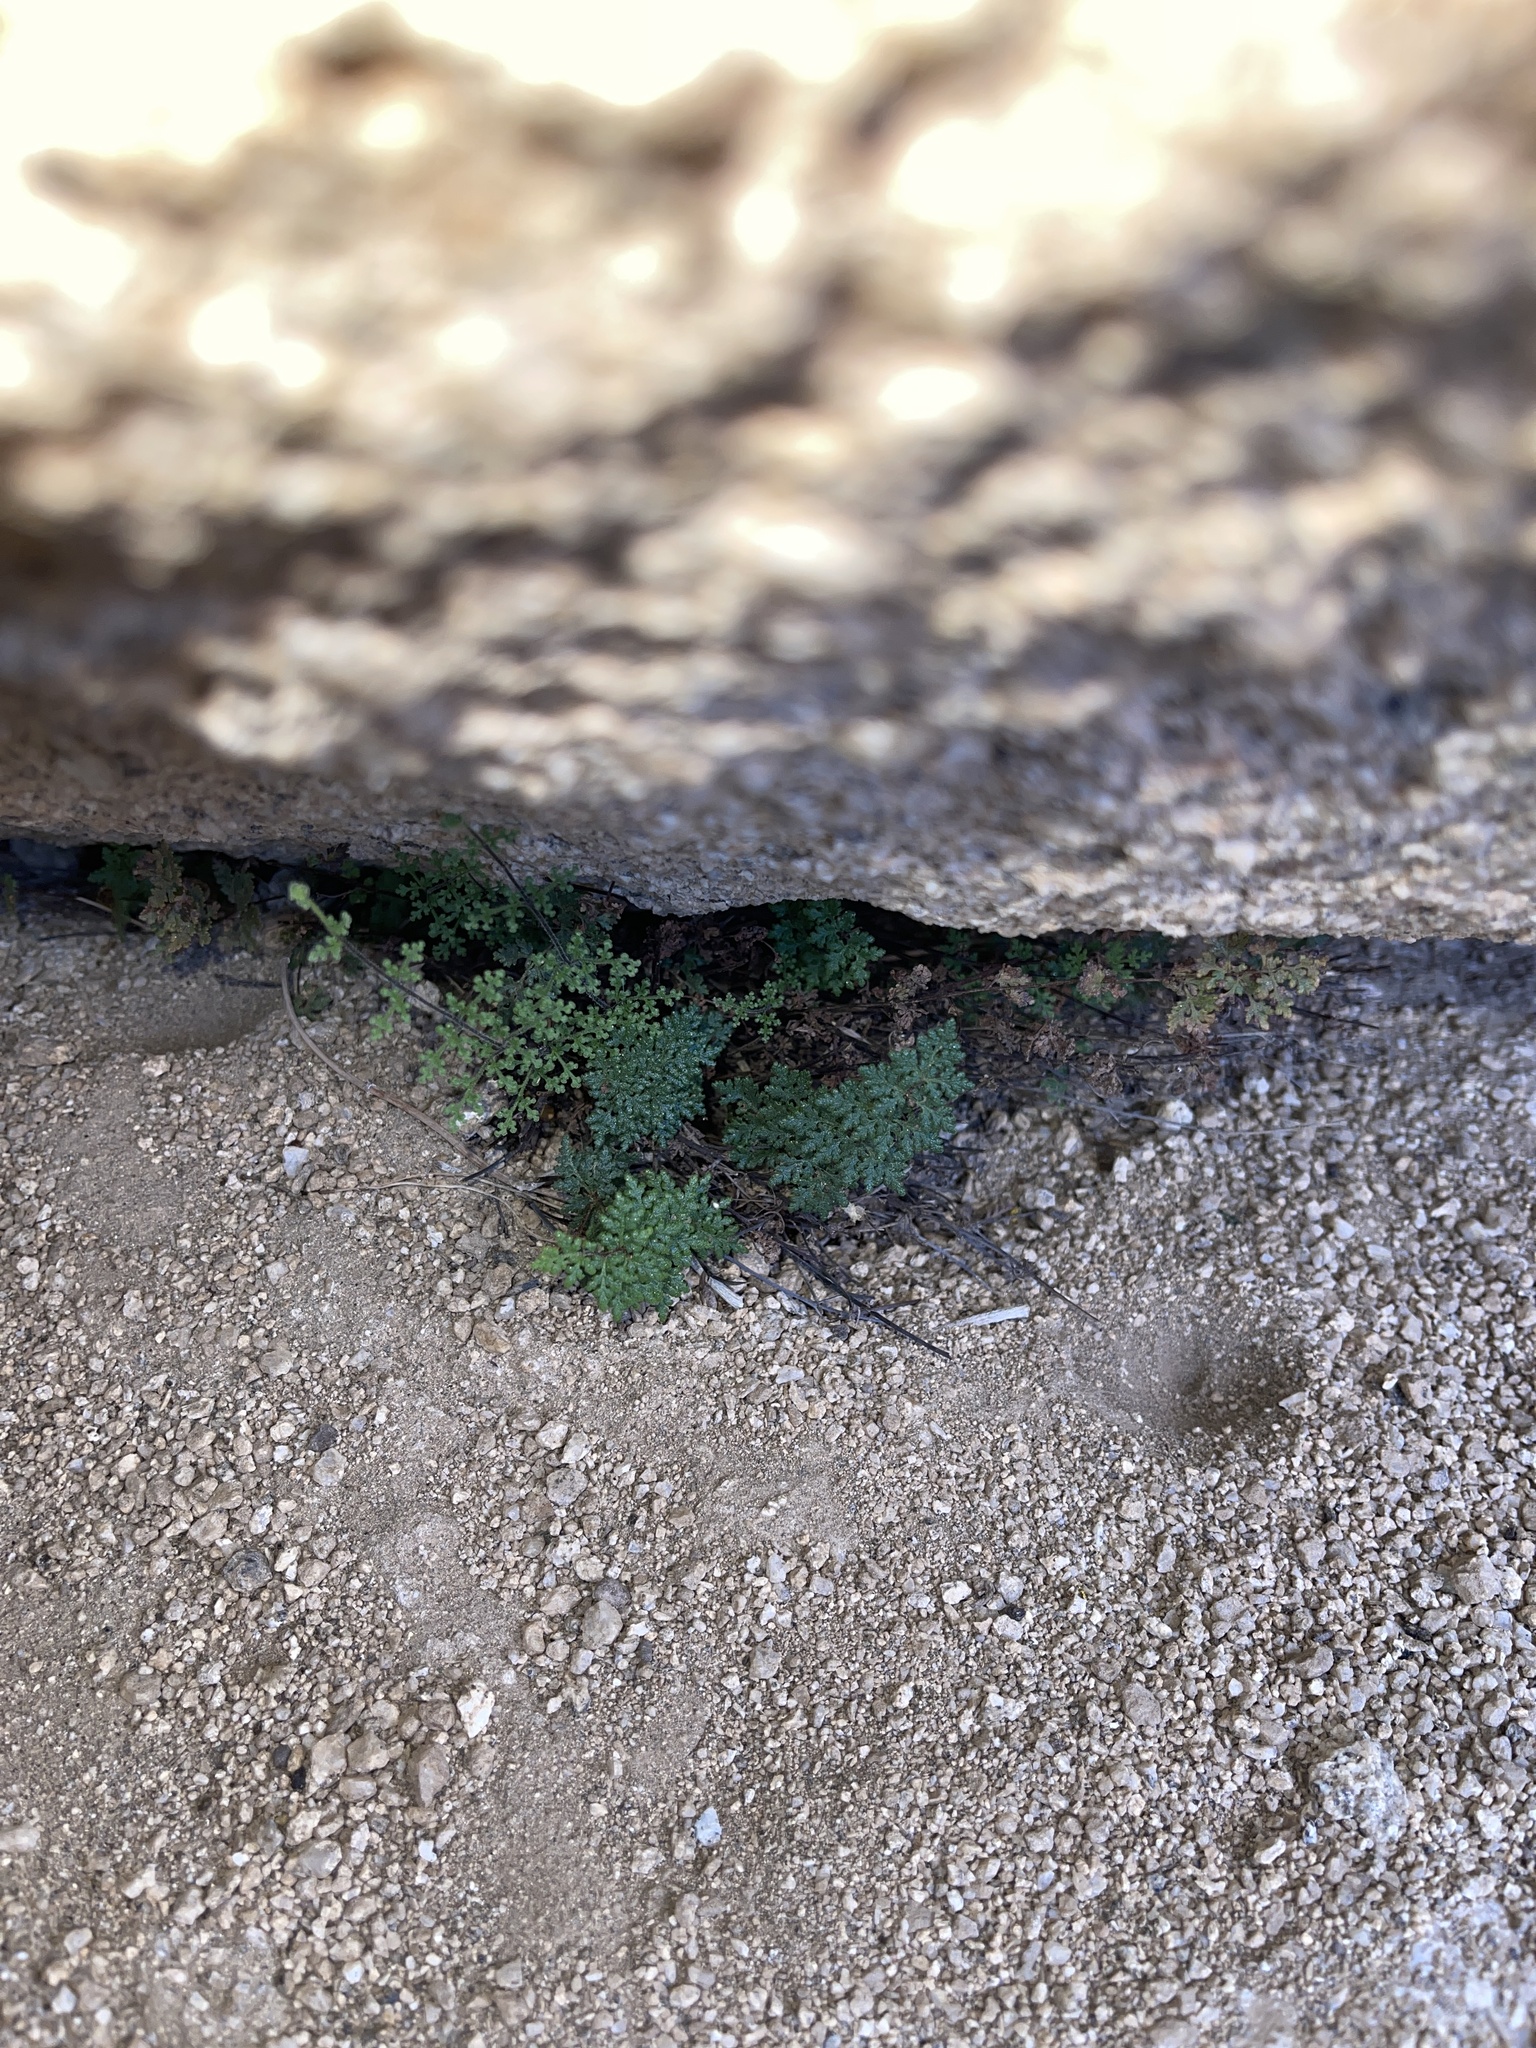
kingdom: Plantae
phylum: Tracheophyta
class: Polypodiopsida
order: Polypodiales
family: Pteridaceae
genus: Myriopteris
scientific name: Myriopteris viscida
